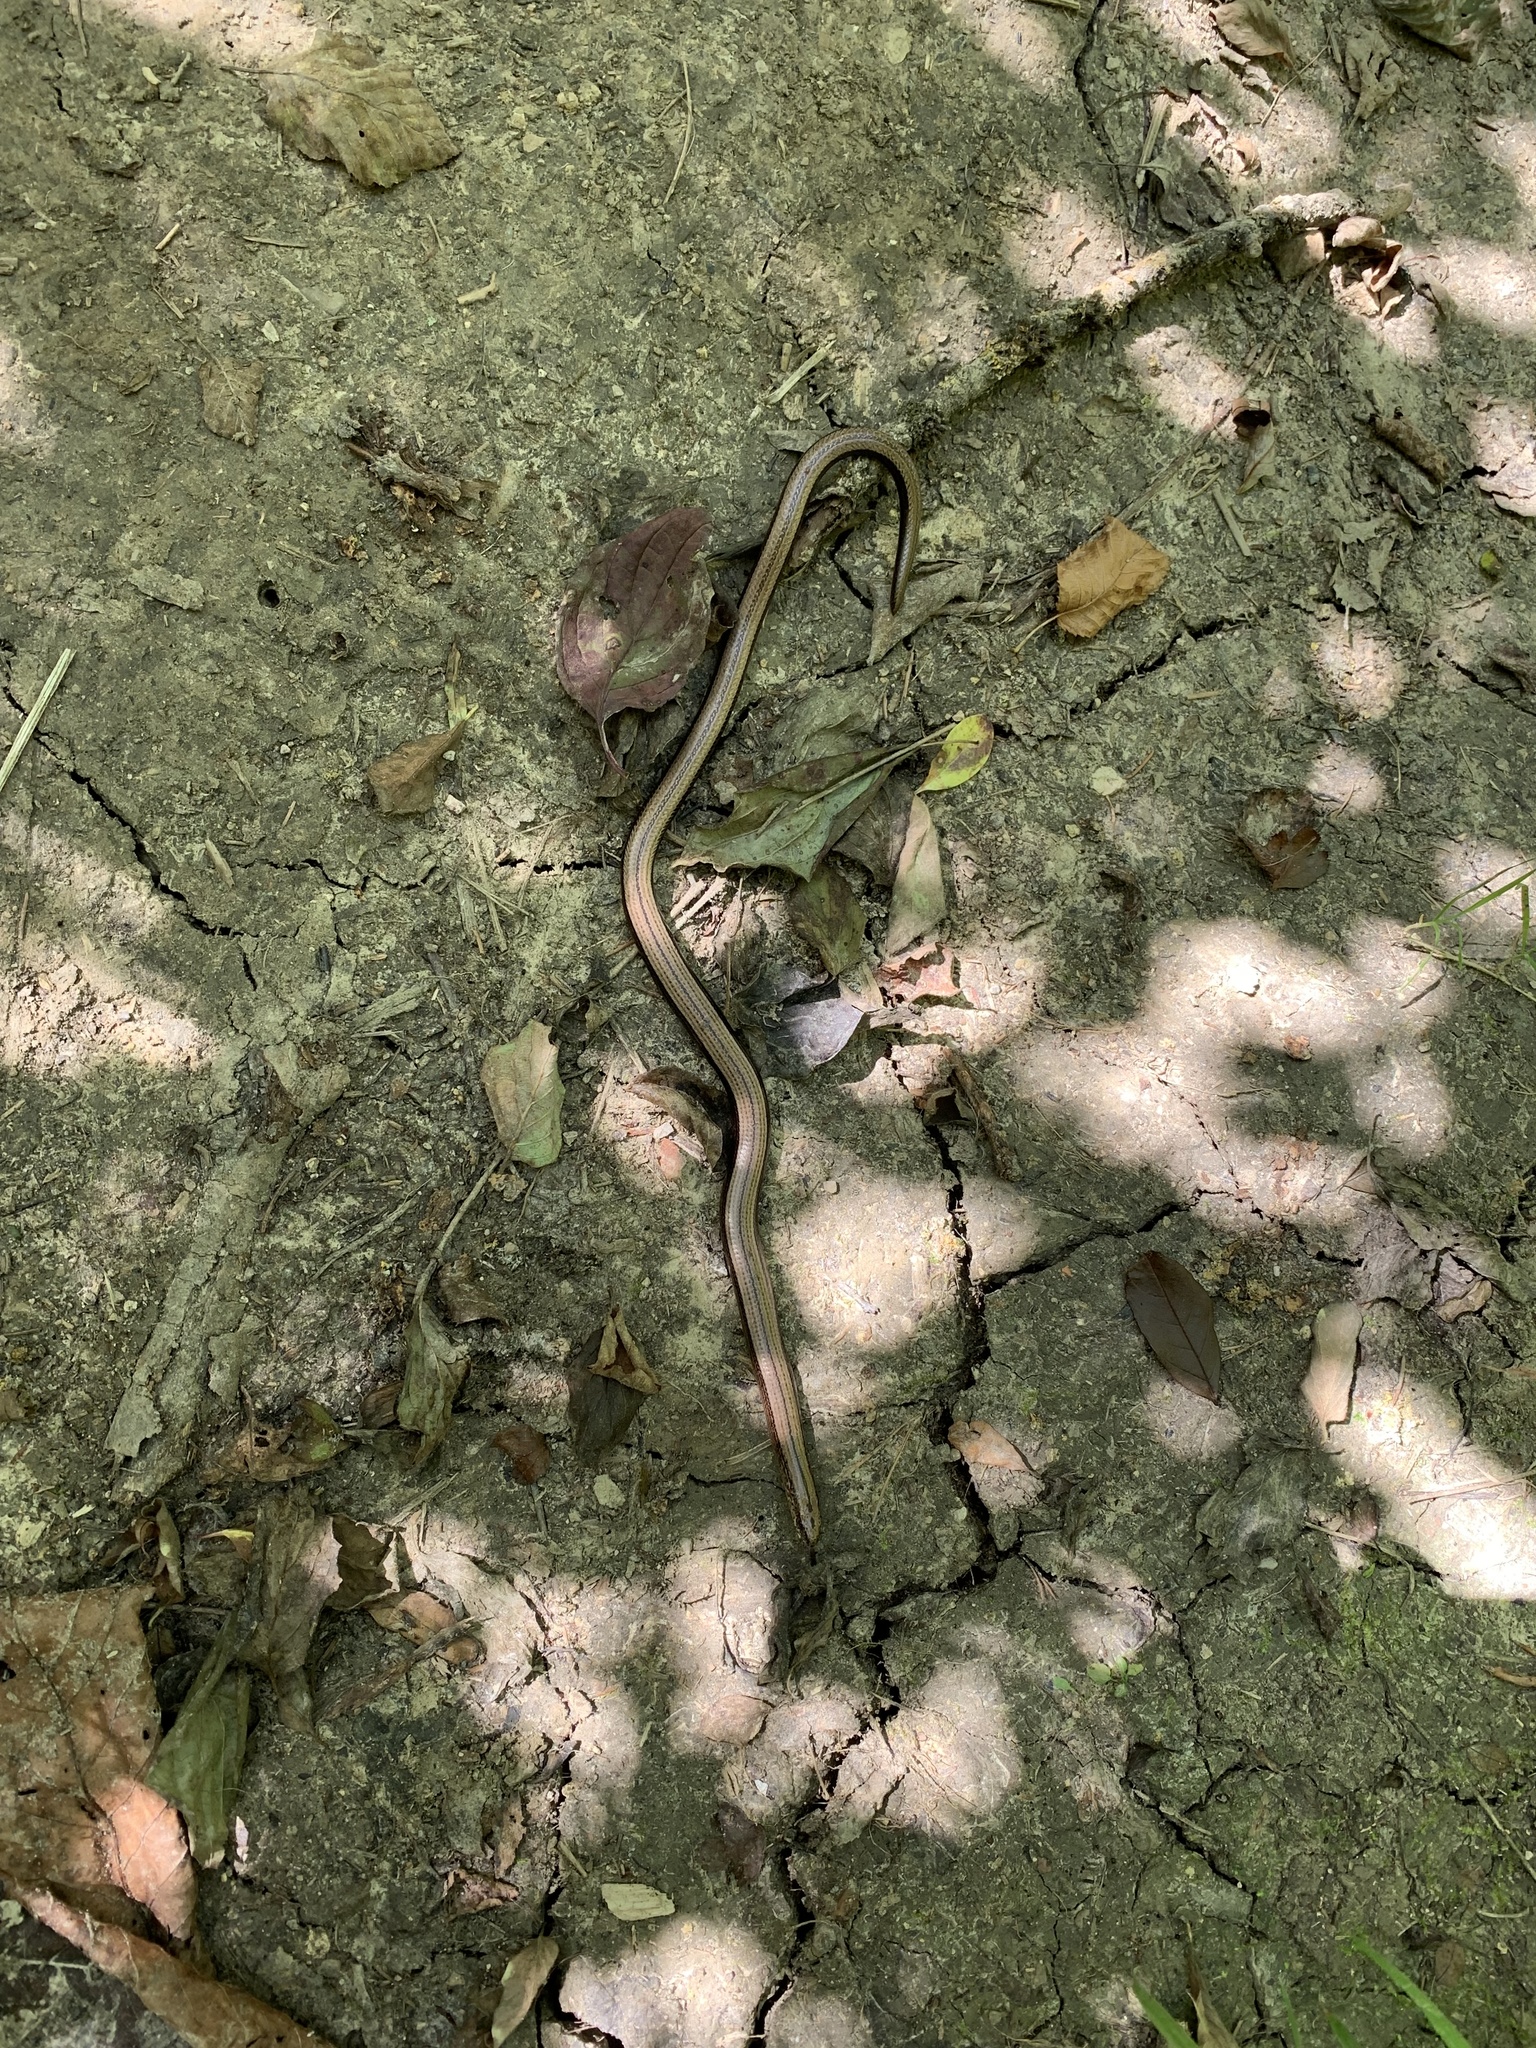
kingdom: Animalia
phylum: Chordata
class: Squamata
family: Anguidae
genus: Anguis
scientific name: Anguis fragilis
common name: Slow worm
